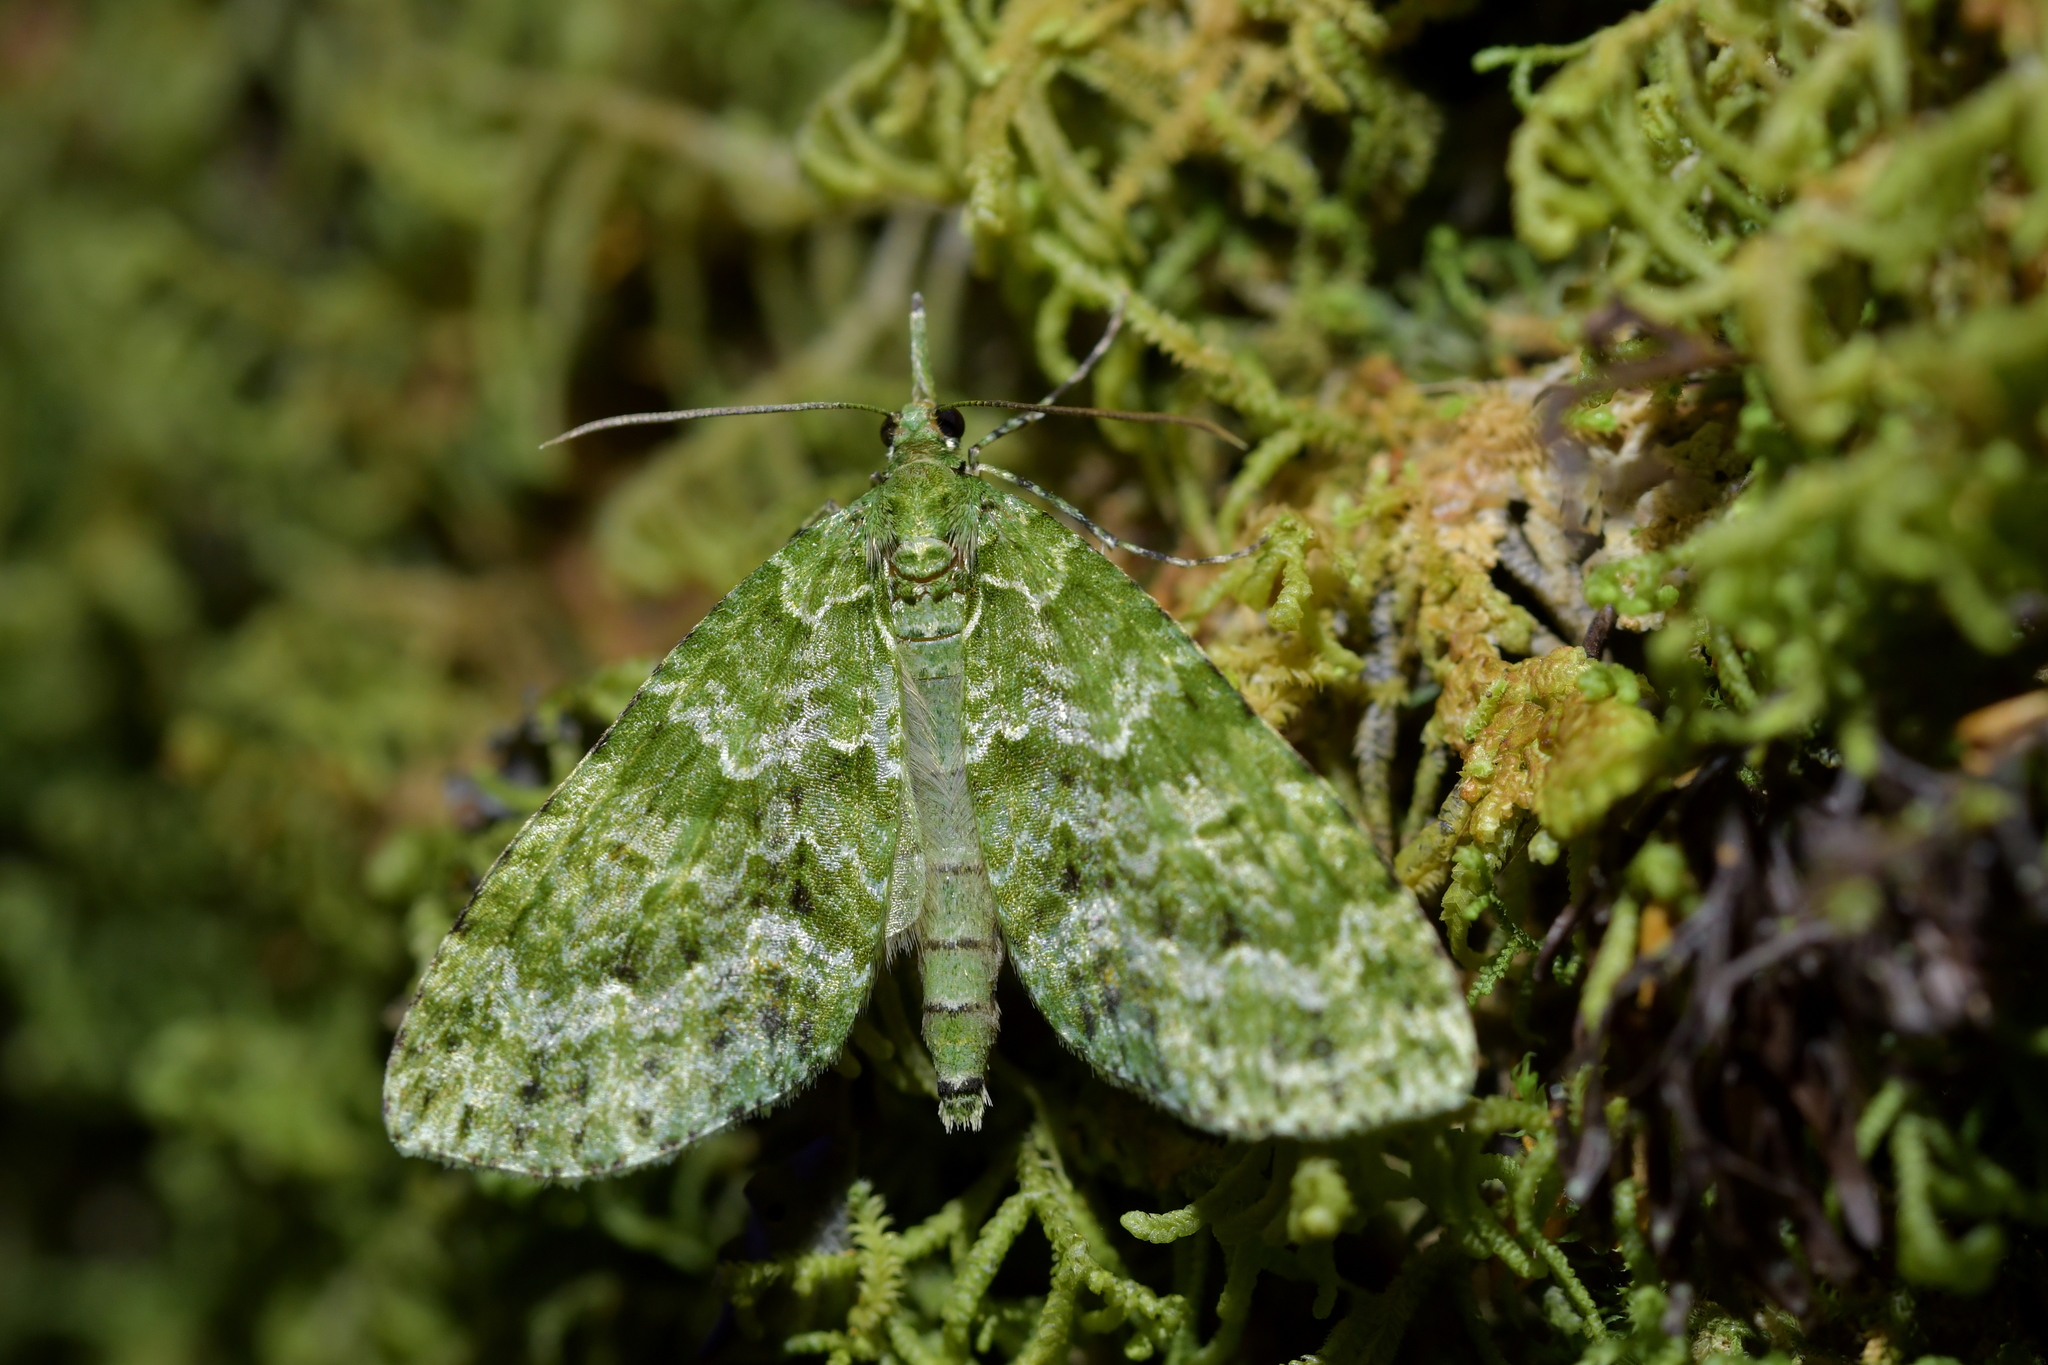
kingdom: Animalia
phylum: Arthropoda
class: Insecta
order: Lepidoptera
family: Geometridae
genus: Tatosoma
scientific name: Tatosoma tipulata
